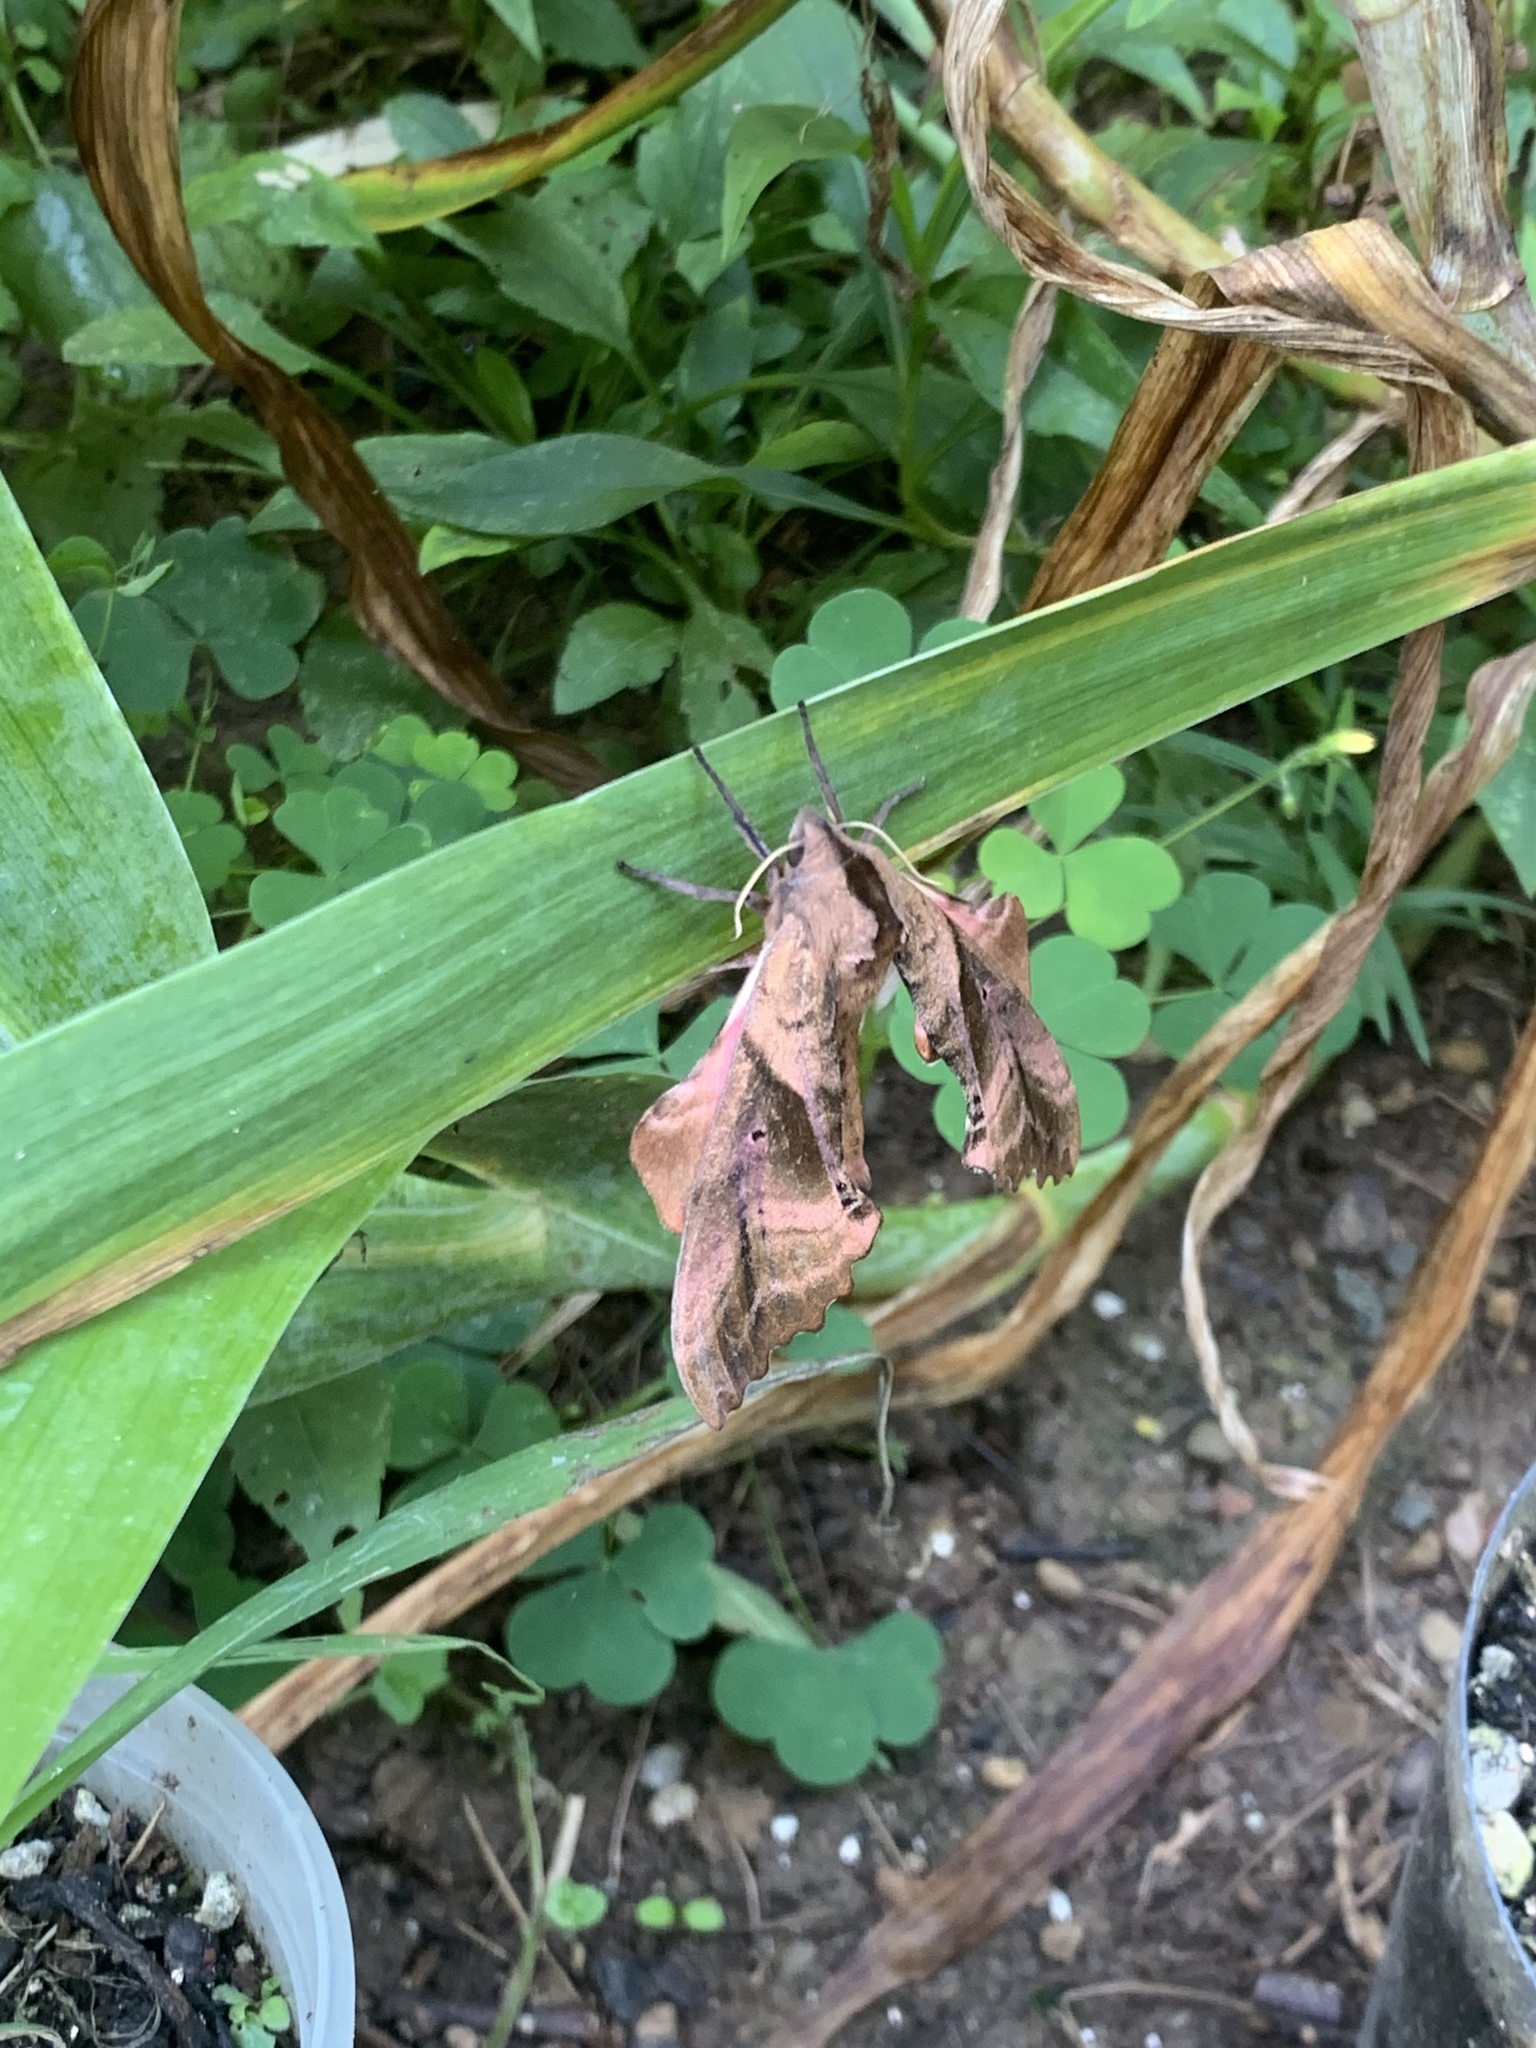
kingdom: Animalia
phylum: Arthropoda
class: Insecta
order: Lepidoptera
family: Sphingidae
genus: Paonias
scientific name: Paonias excaecata
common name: Blind-eyed sphinx
